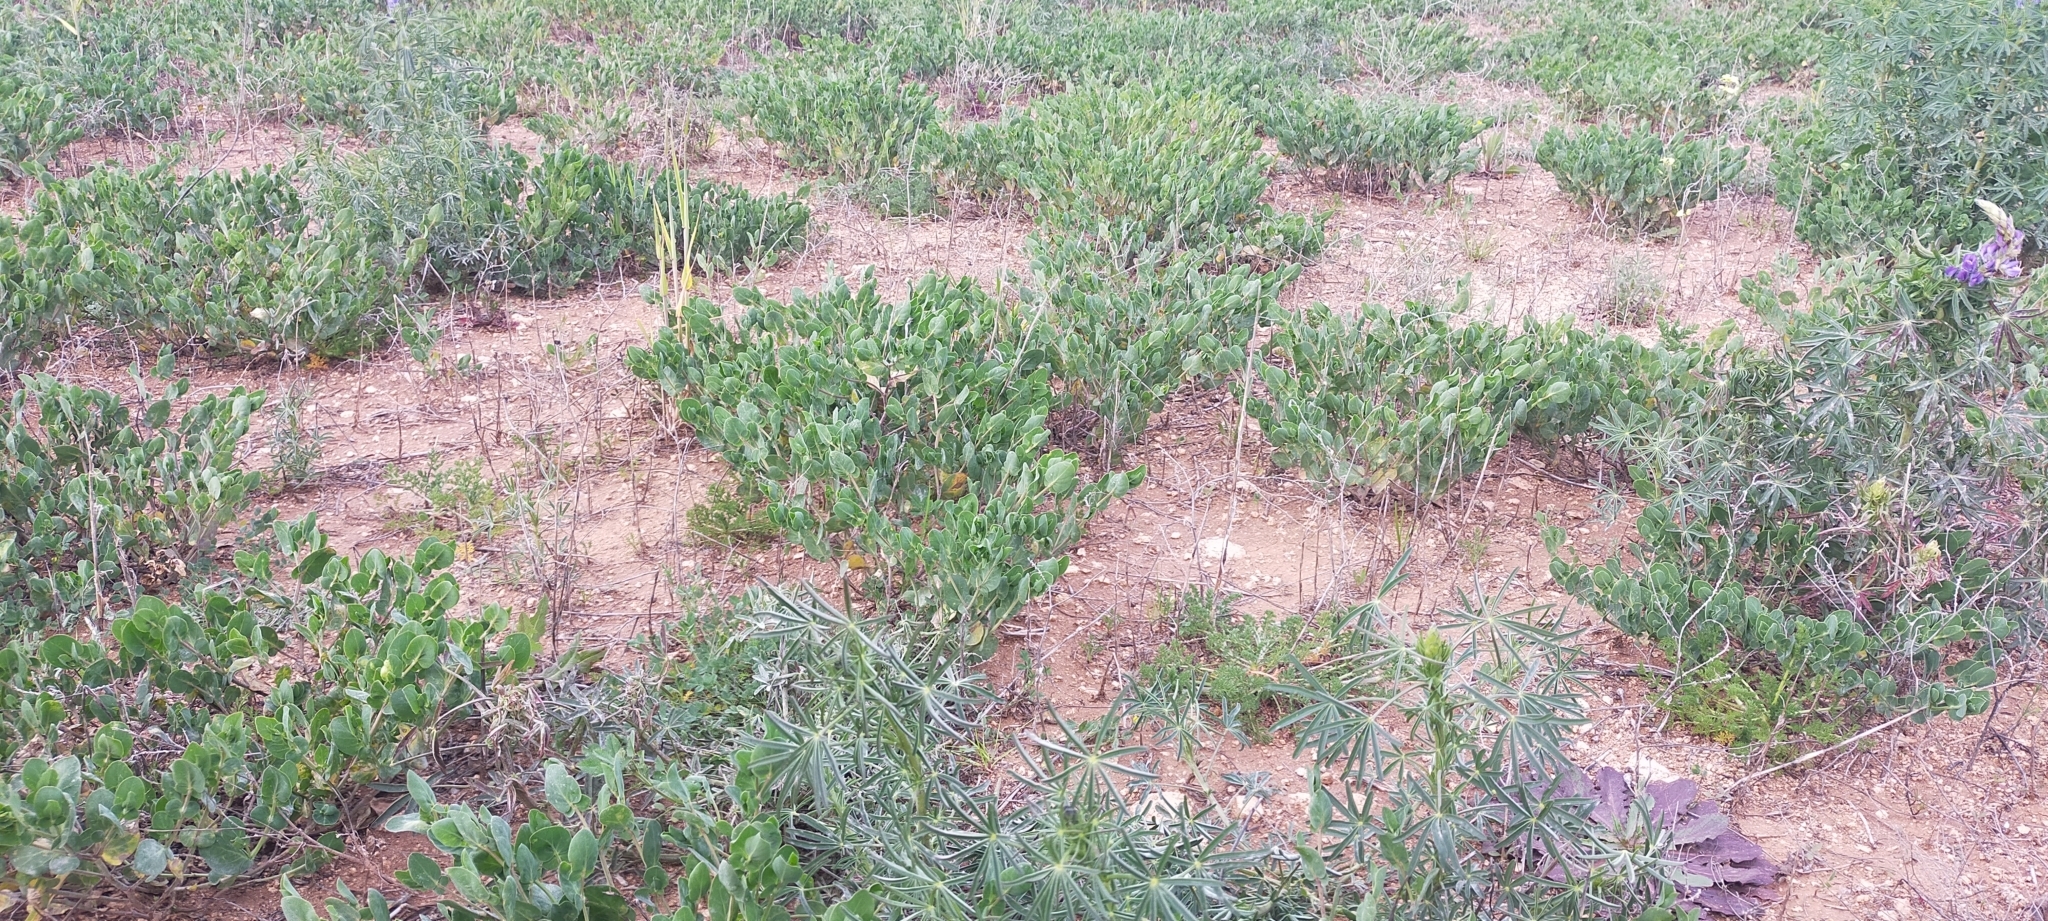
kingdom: Plantae
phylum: Tracheophyta
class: Magnoliopsida
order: Fabales
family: Fabaceae
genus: Coronilla
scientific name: Coronilla scorpioides
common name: Annual scorpion-vetch
